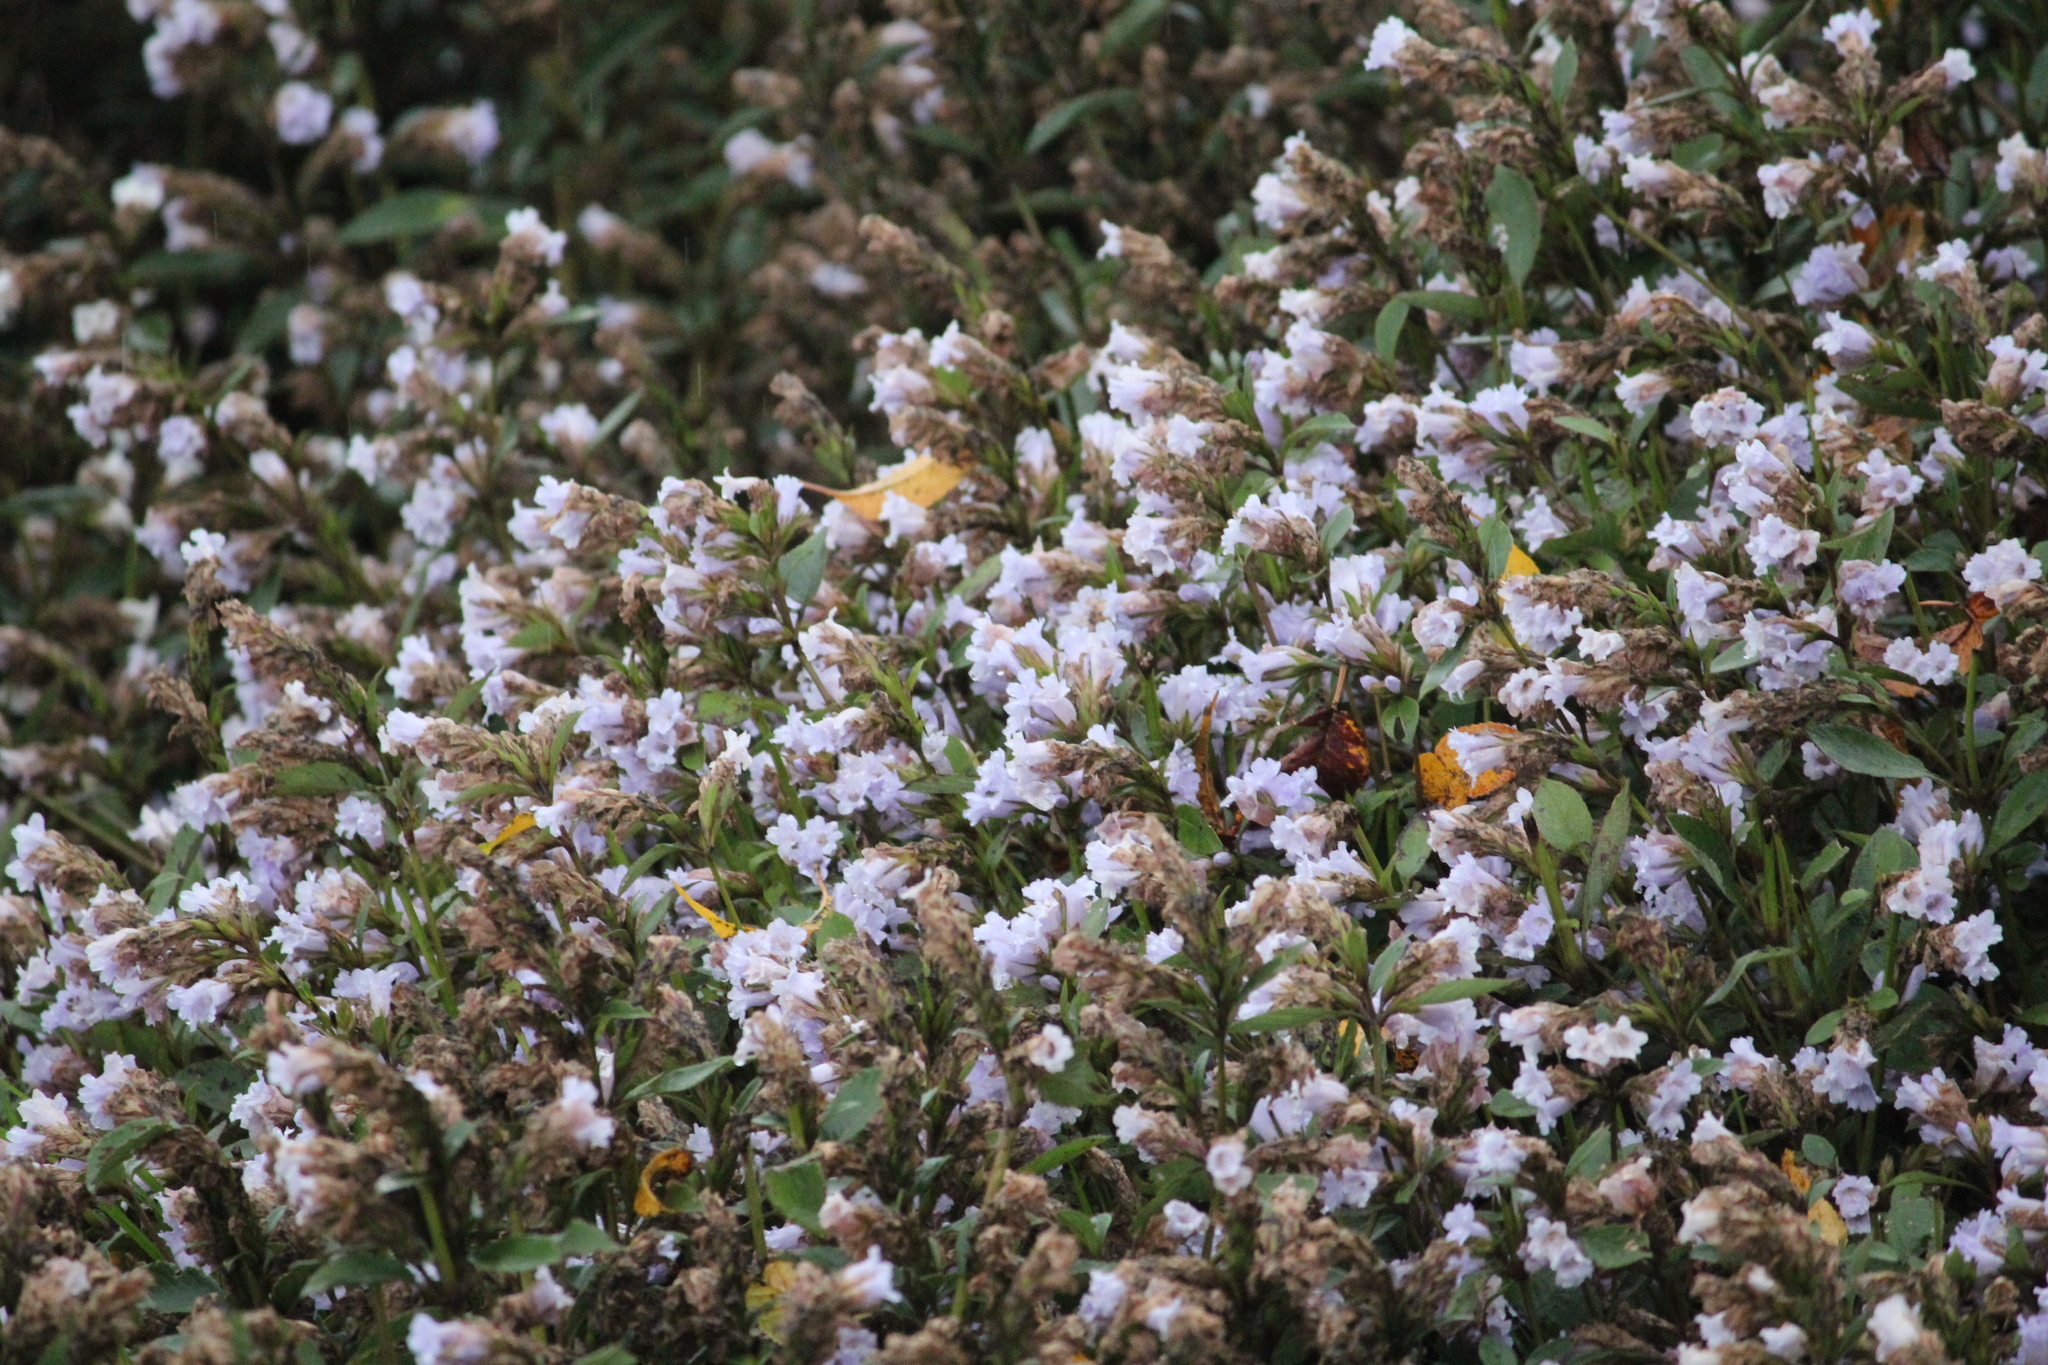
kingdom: Plantae
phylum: Tracheophyta
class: Magnoliopsida
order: Lamiales
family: Acanthaceae
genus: Strobilanthes
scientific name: Strobilanthes kunthiana
